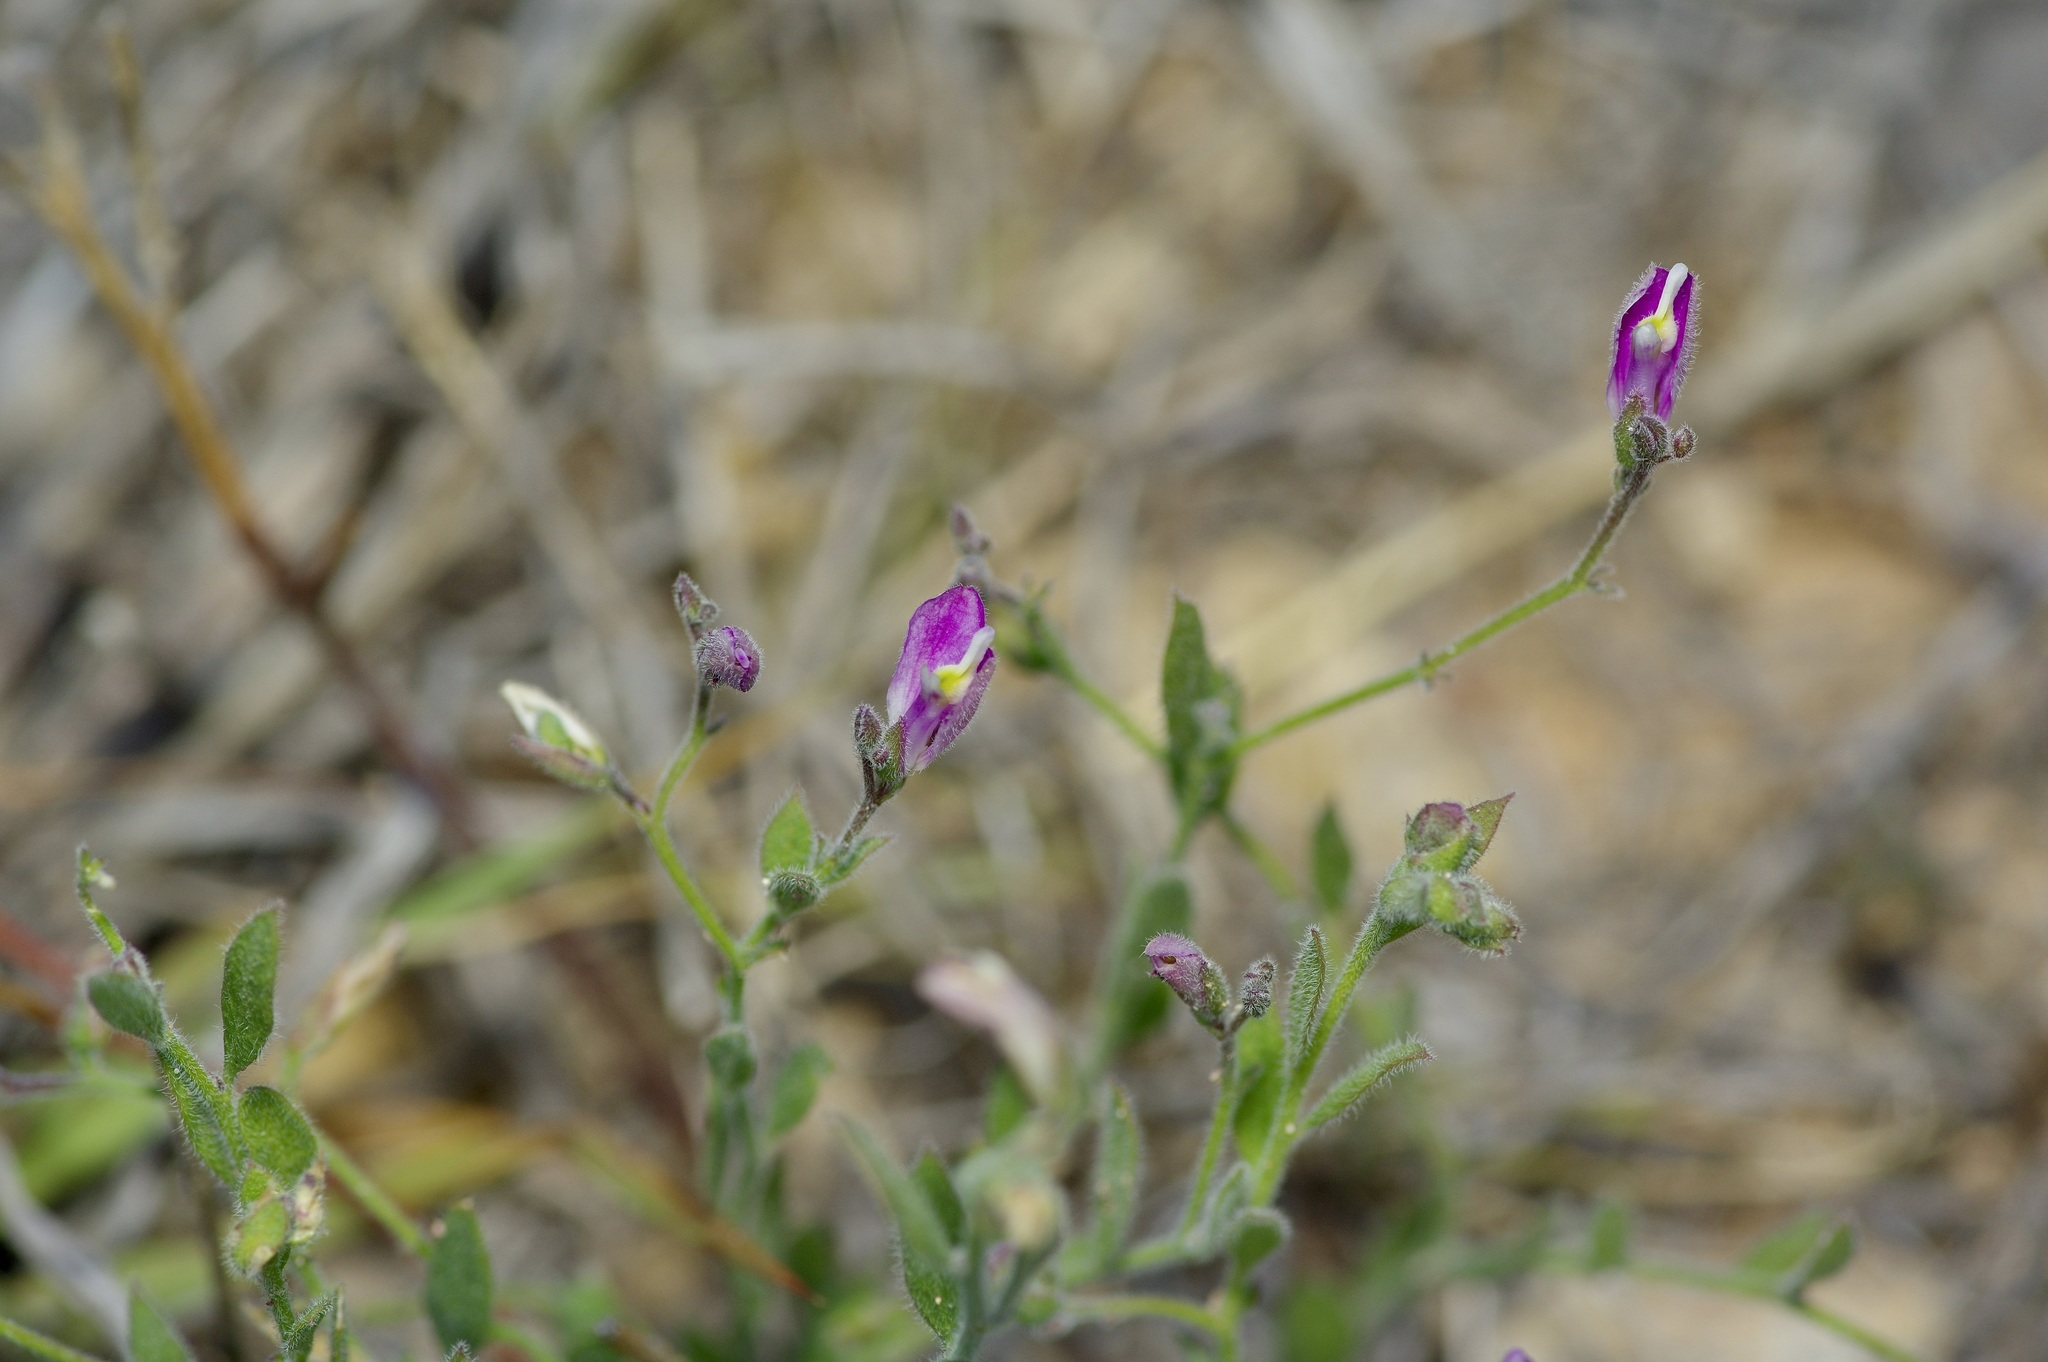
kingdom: Plantae
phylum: Tracheophyta
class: Magnoliopsida
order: Fabales
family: Polygalaceae
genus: Rhinotropis
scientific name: Rhinotropis lindheimeri
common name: Shrubby milkwort
